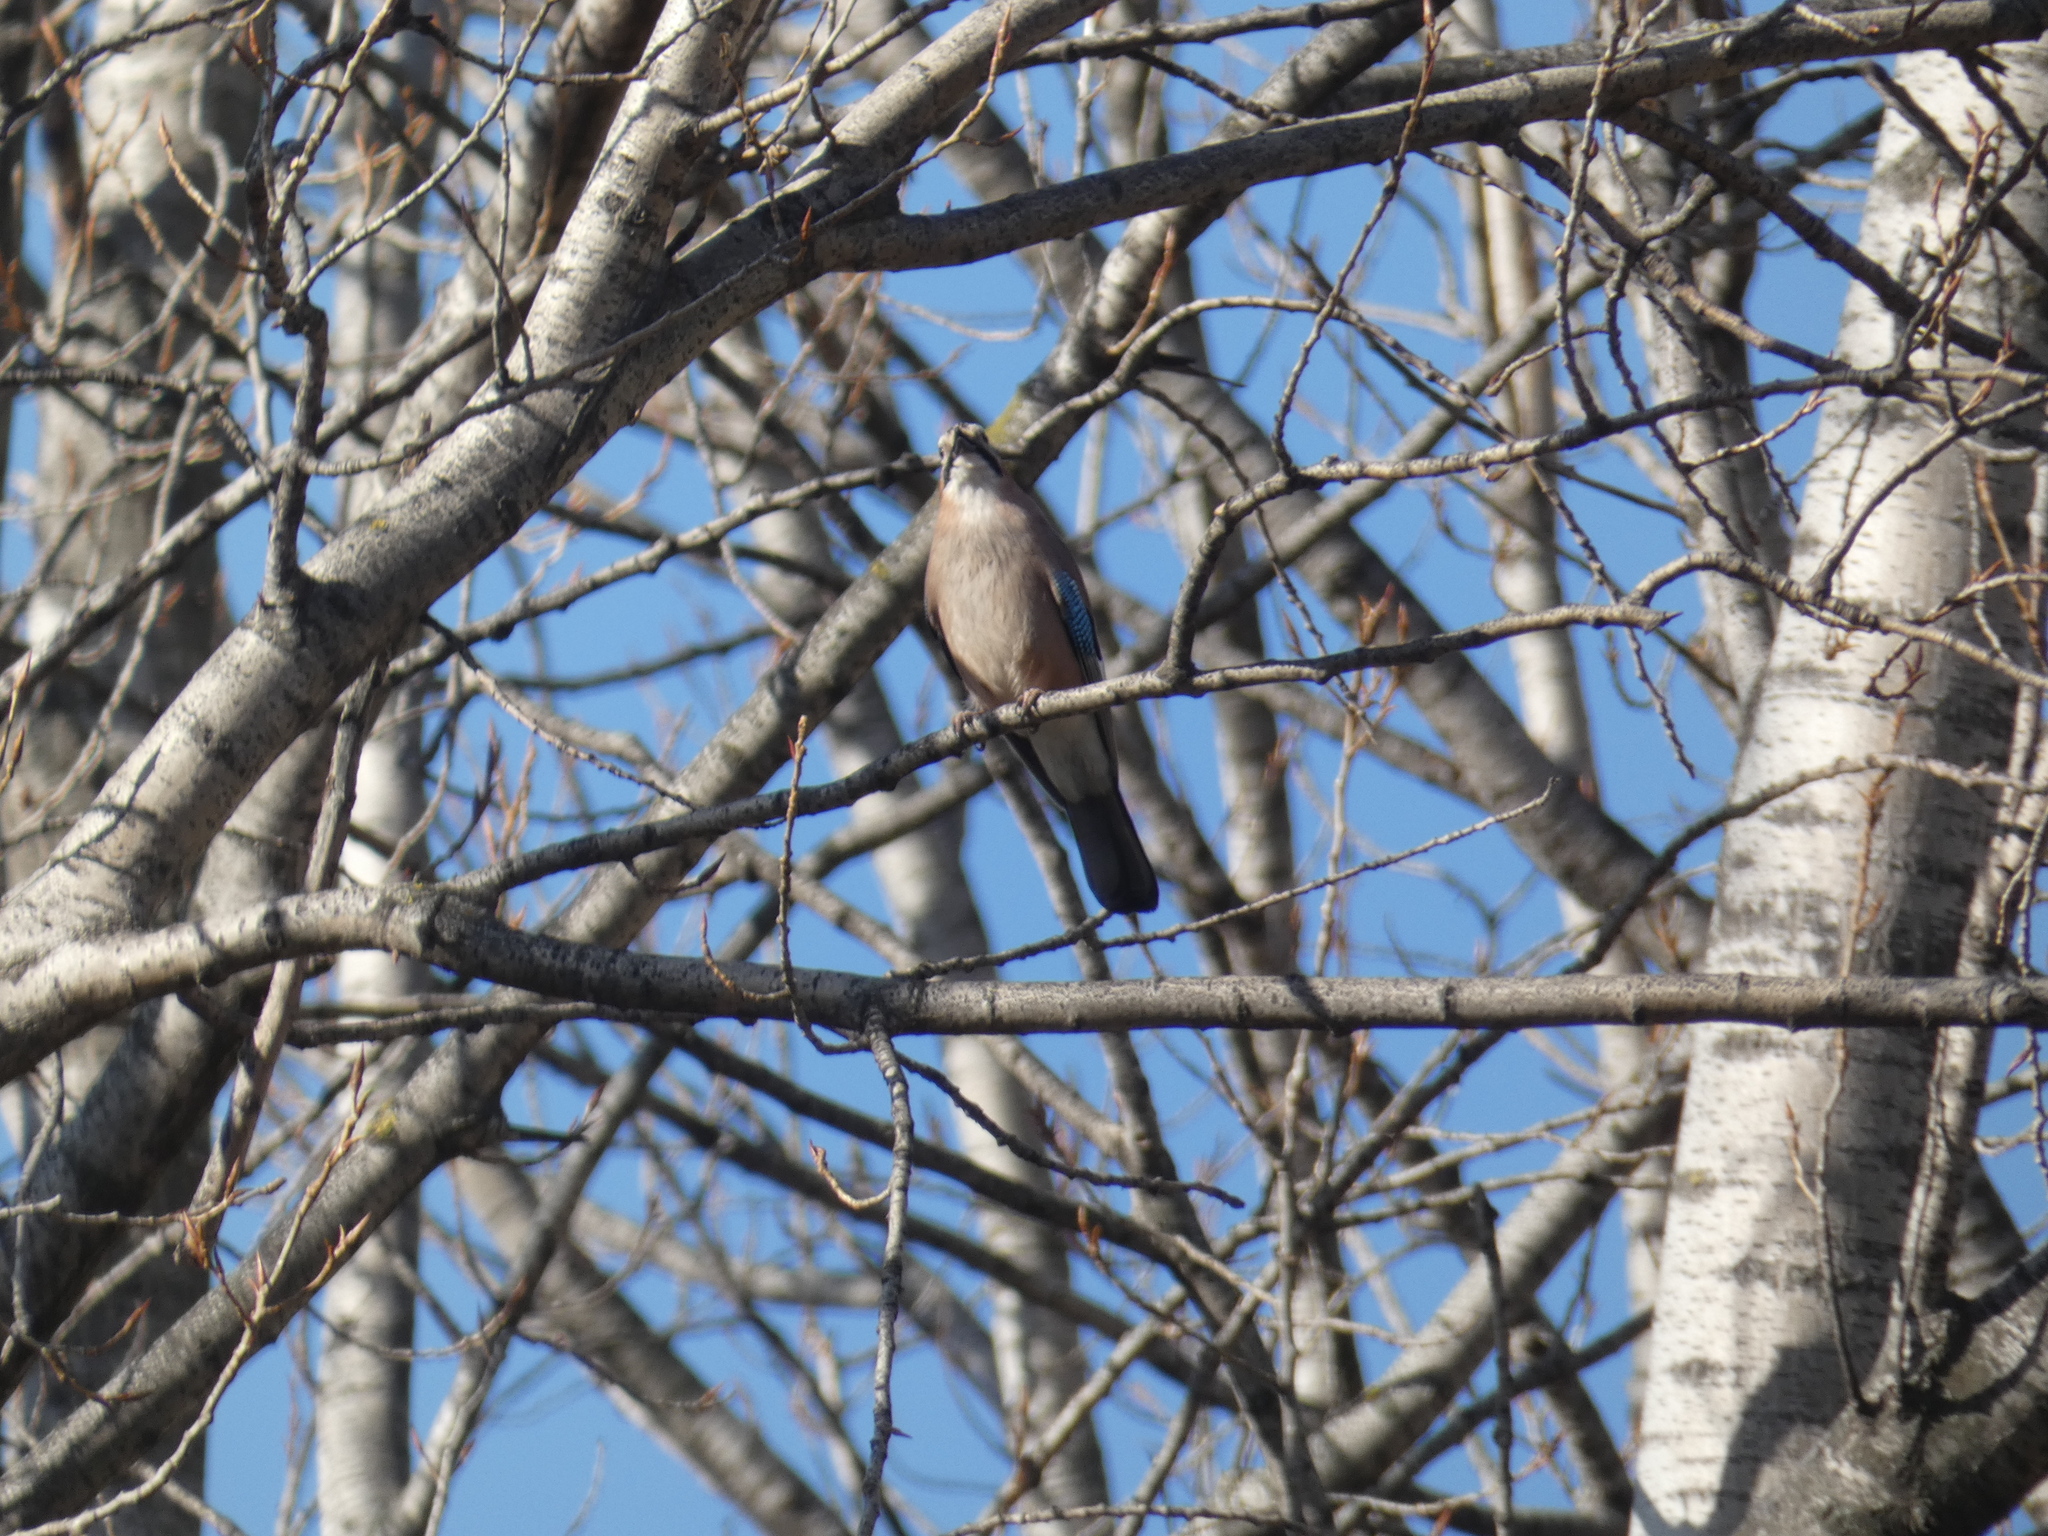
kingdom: Animalia
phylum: Chordata
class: Aves
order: Passeriformes
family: Corvidae
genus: Garrulus
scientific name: Garrulus glandarius
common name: Eurasian jay
